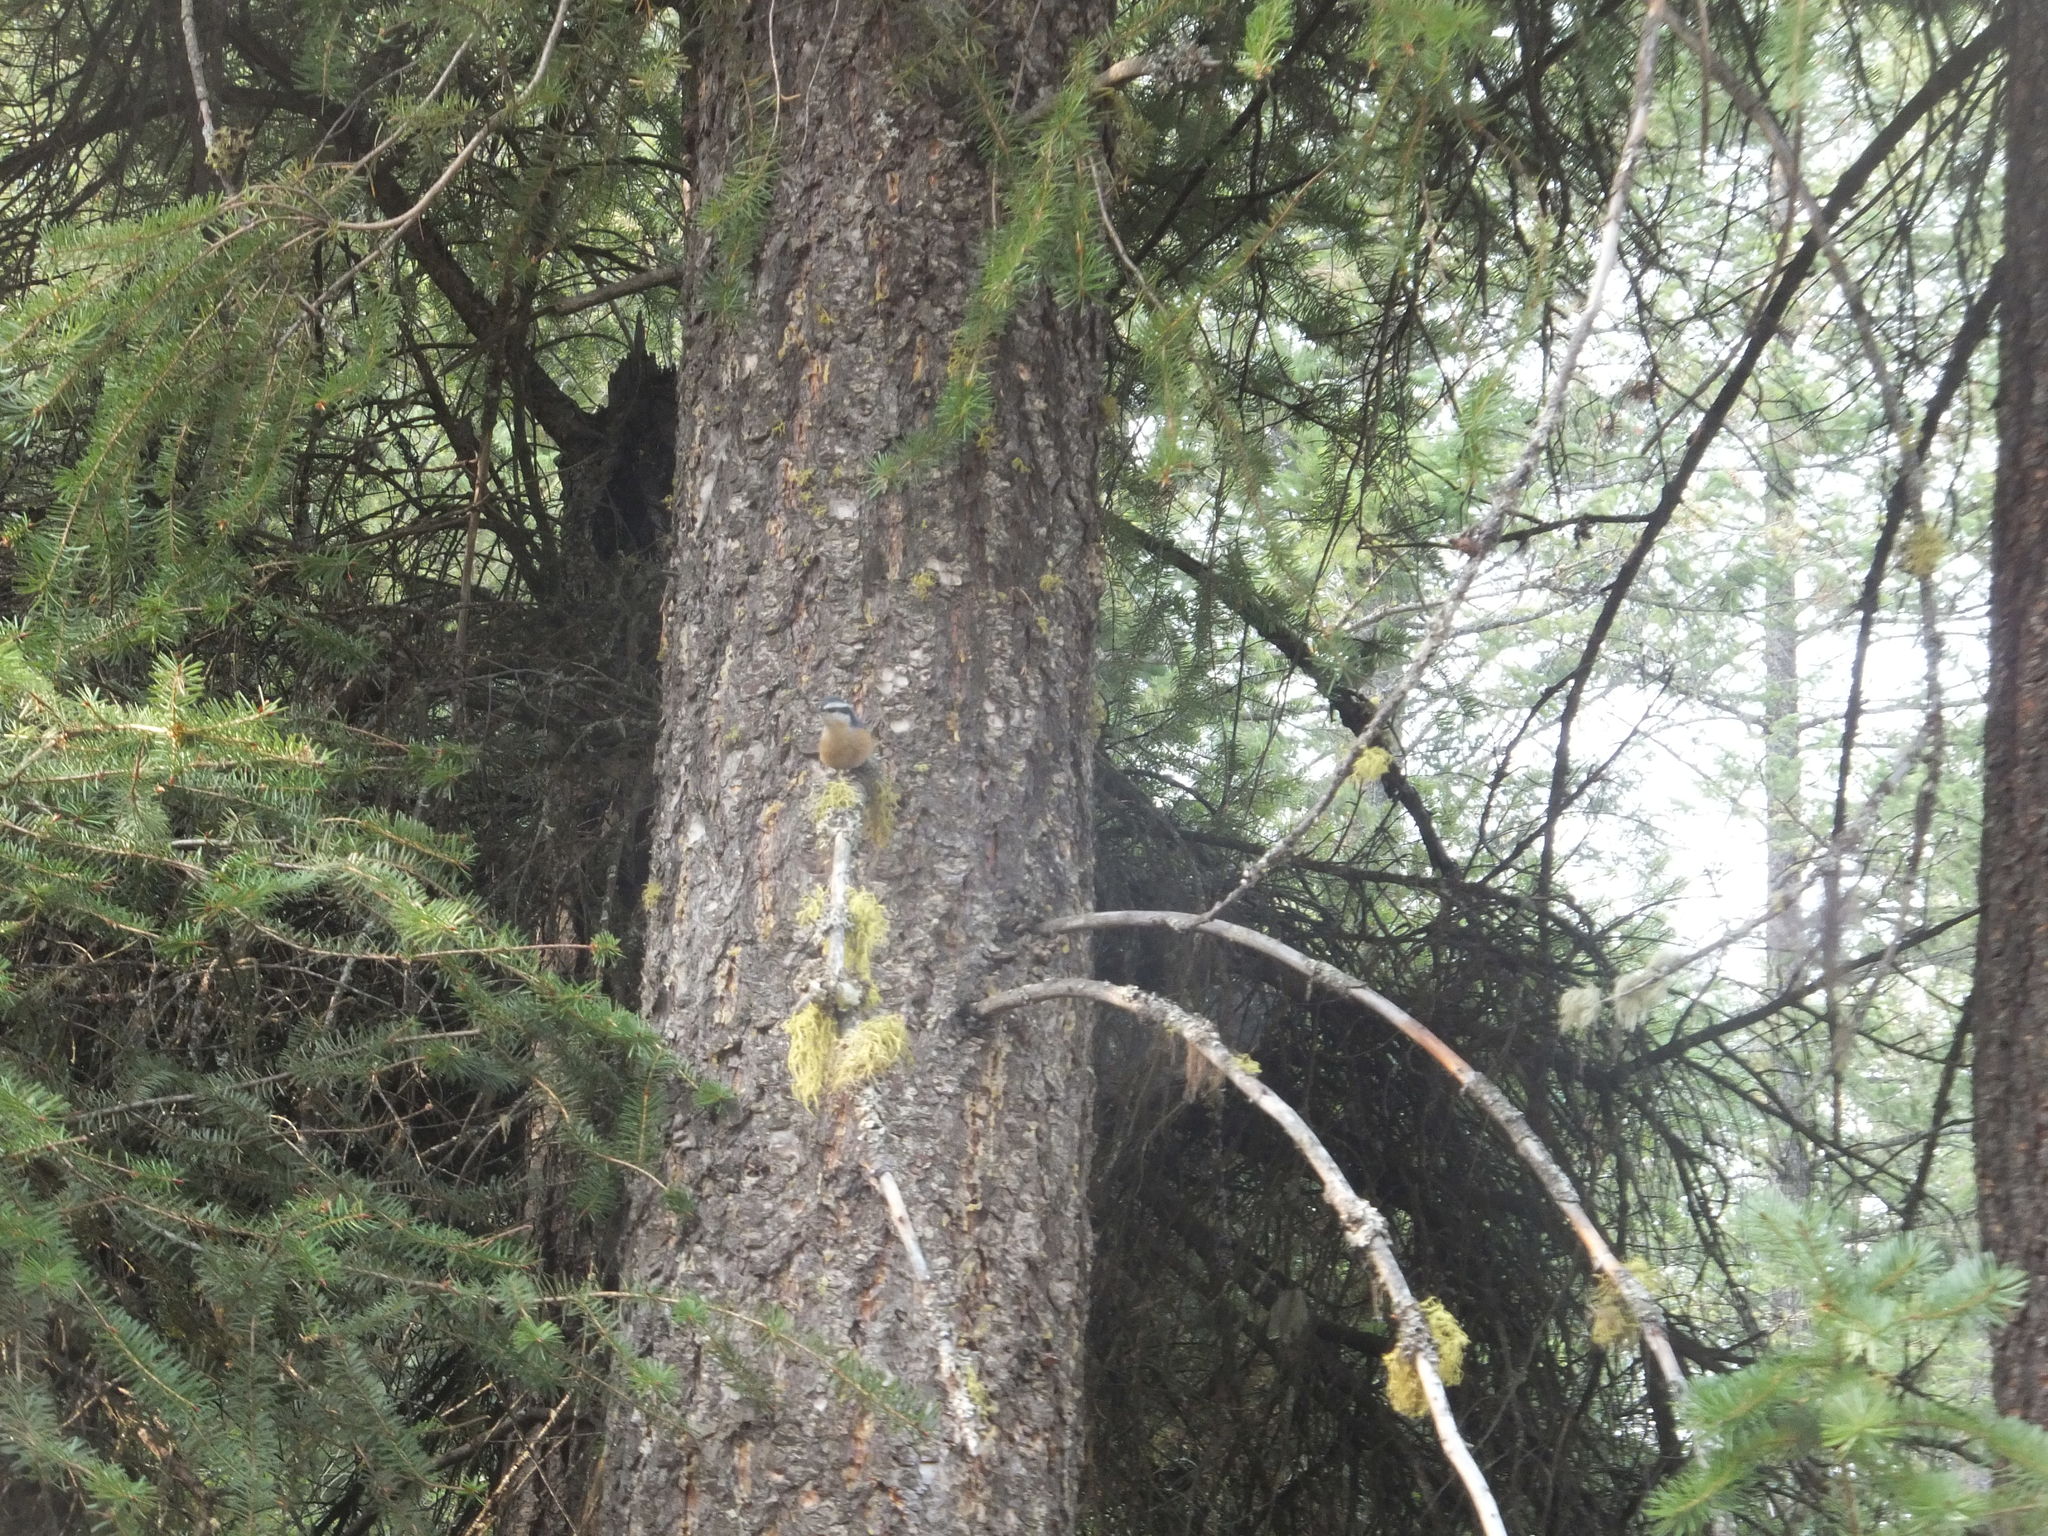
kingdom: Animalia
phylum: Chordata
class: Aves
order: Passeriformes
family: Sittidae
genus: Sitta
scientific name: Sitta canadensis
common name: Red-breasted nuthatch
